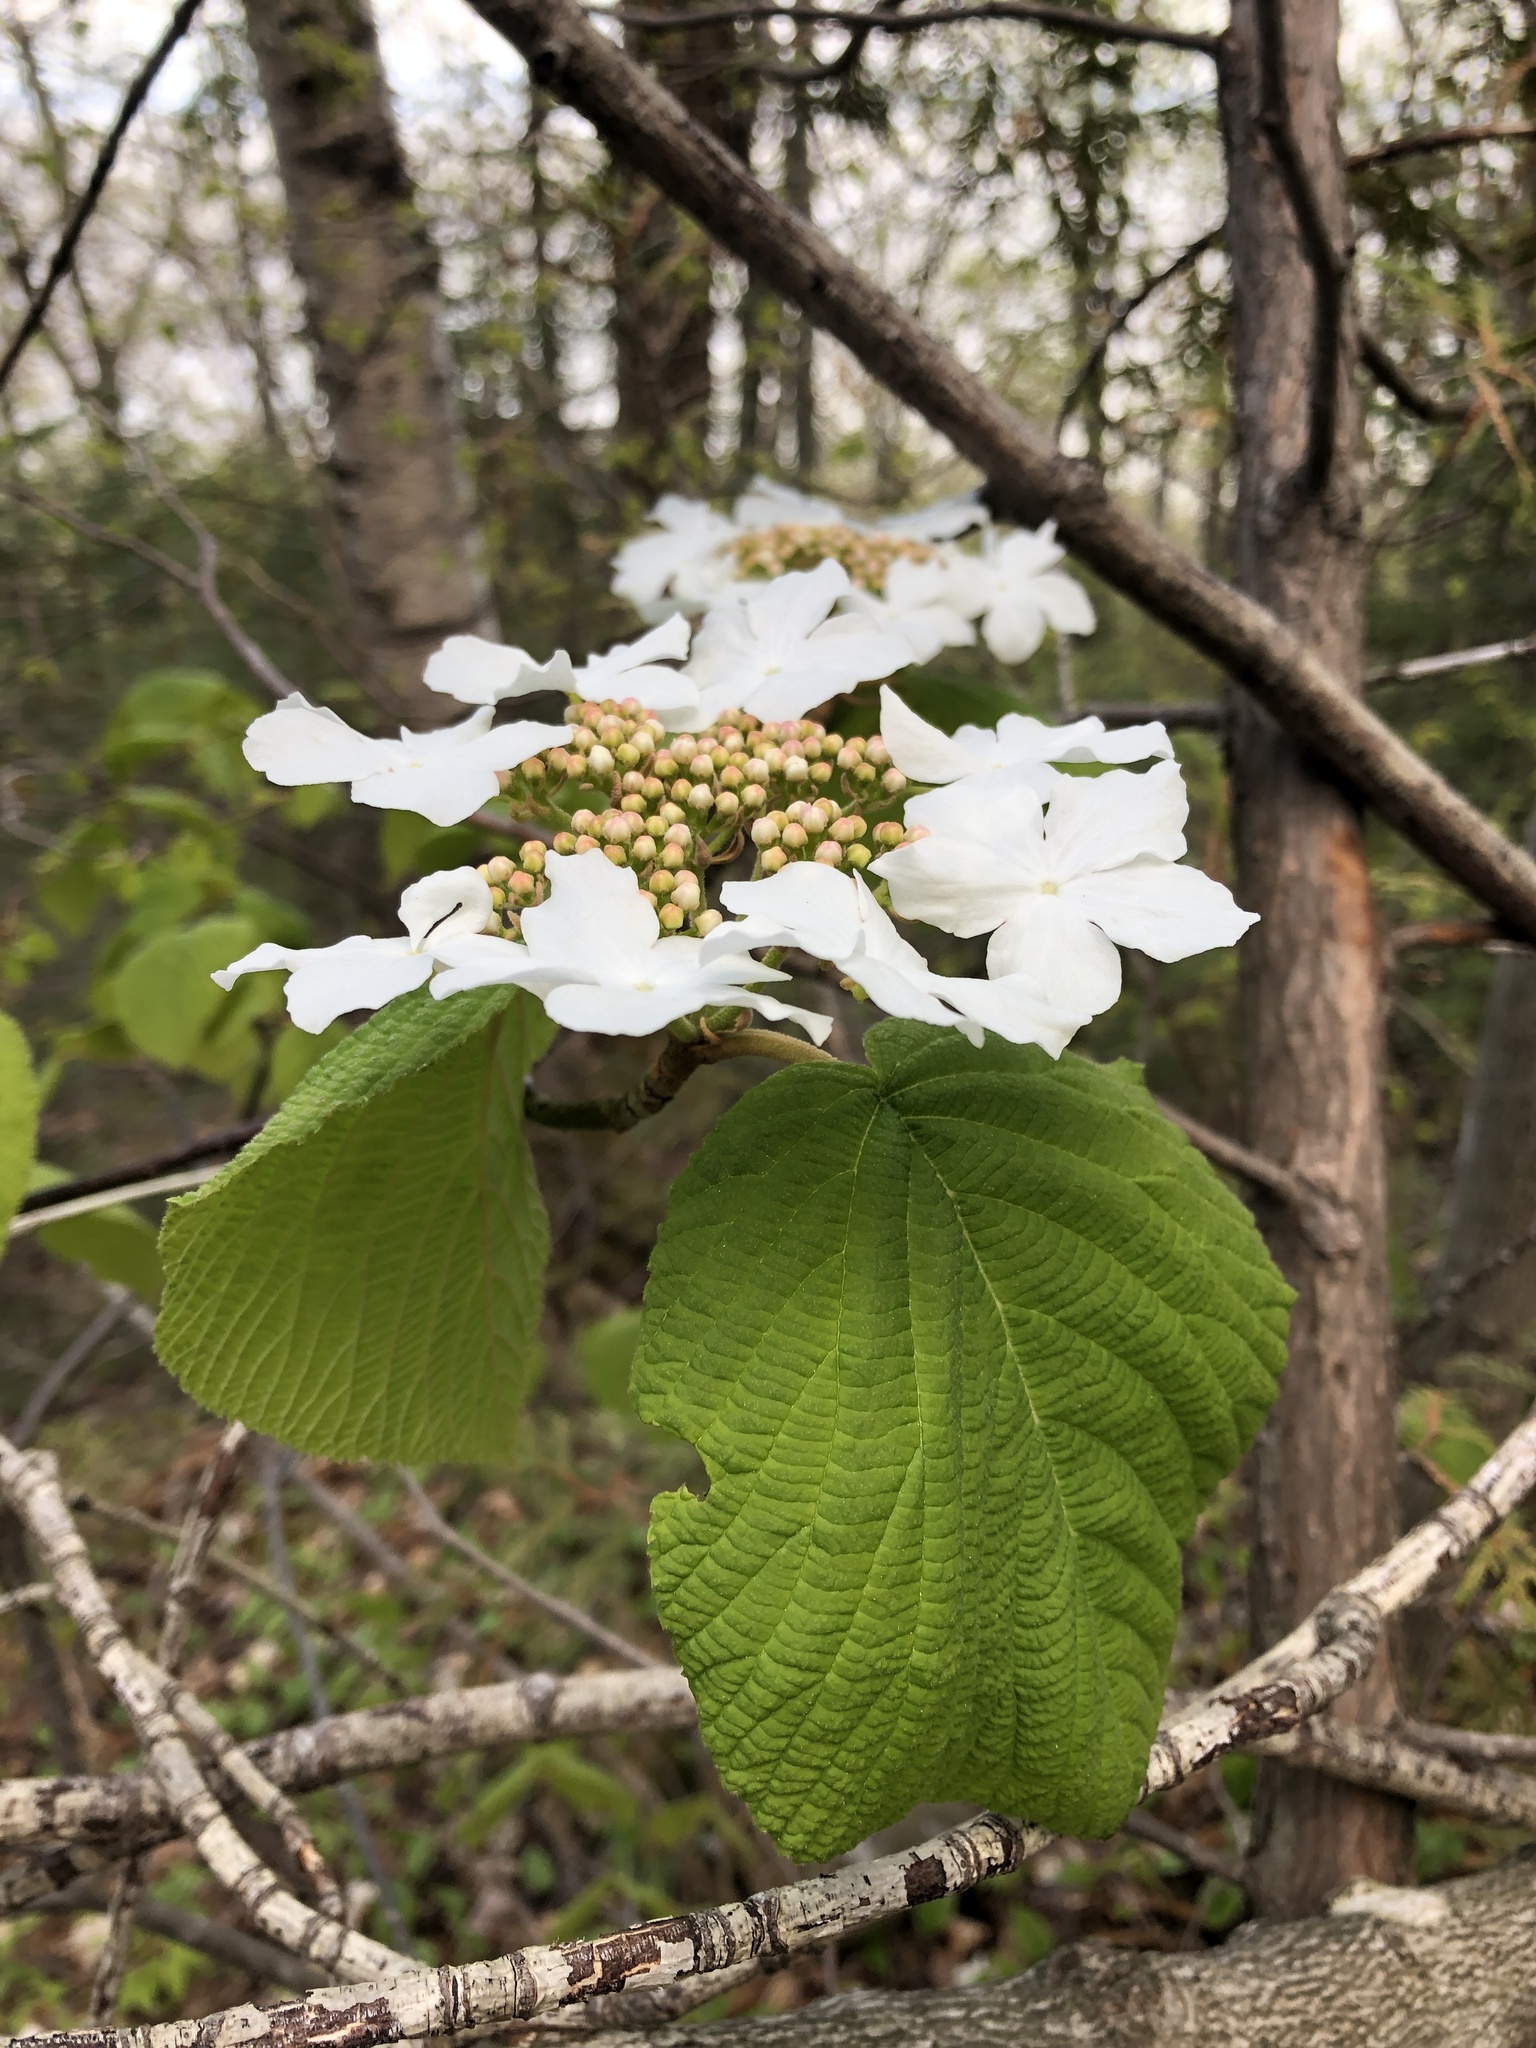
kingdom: Plantae
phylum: Tracheophyta
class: Magnoliopsida
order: Dipsacales
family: Viburnaceae
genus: Viburnum
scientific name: Viburnum lantanoides
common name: Hobblebush
